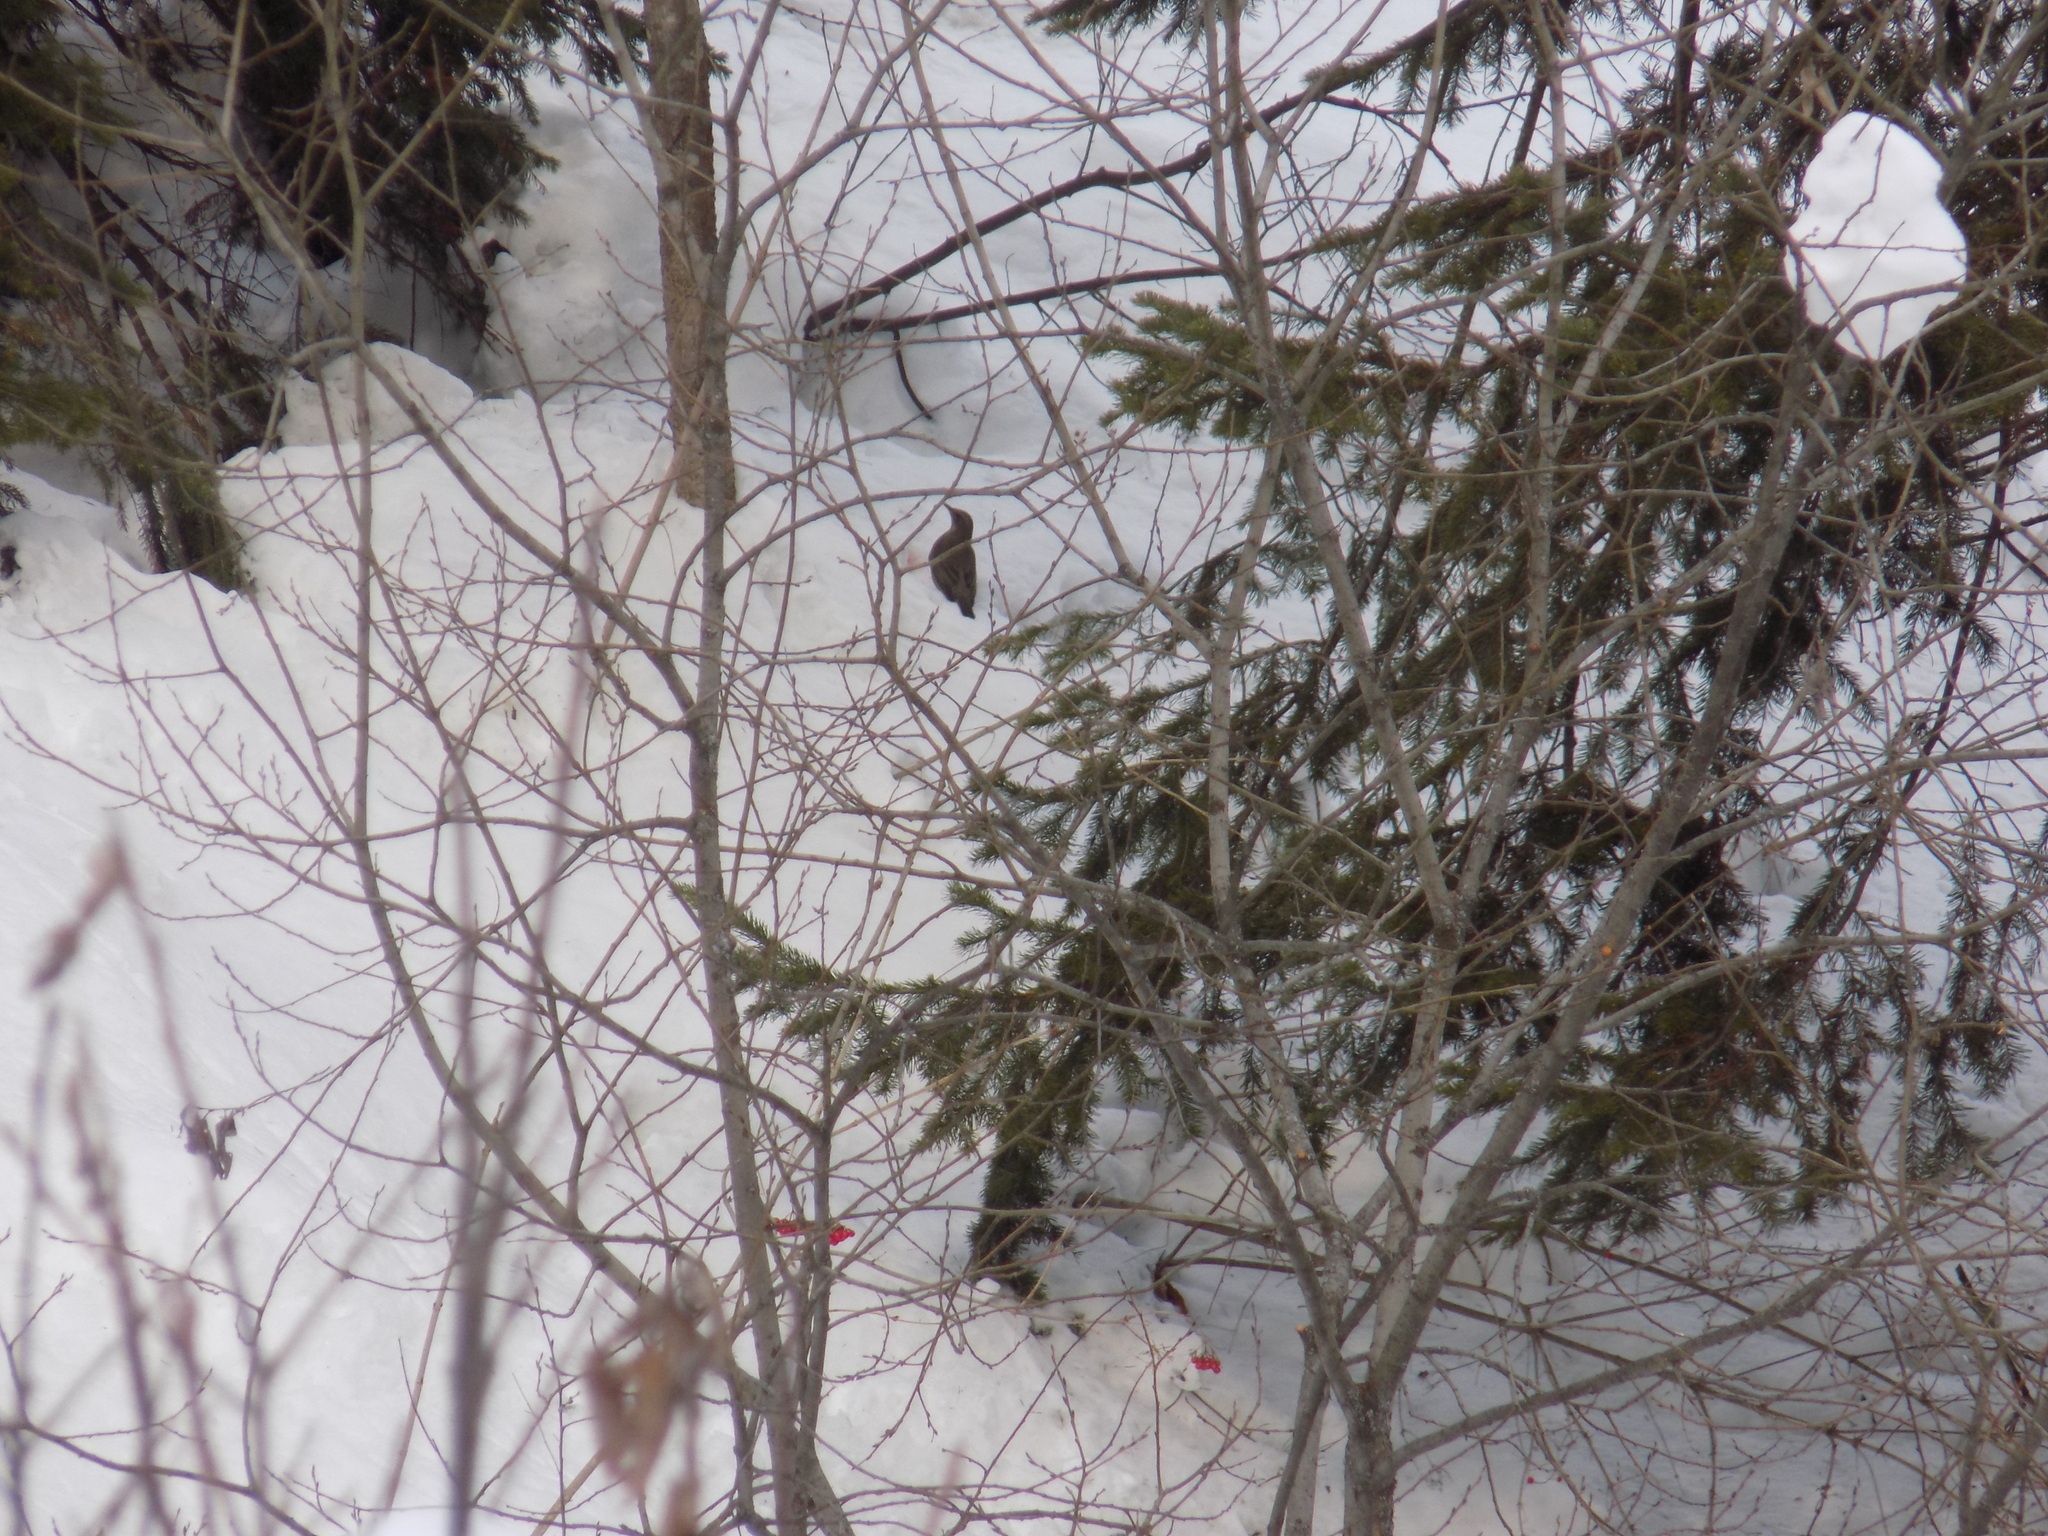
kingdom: Animalia
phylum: Chordata
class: Aves
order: Passeriformes
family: Turdidae
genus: Turdus
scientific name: Turdus atrogularis
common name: Black-throated thrush
